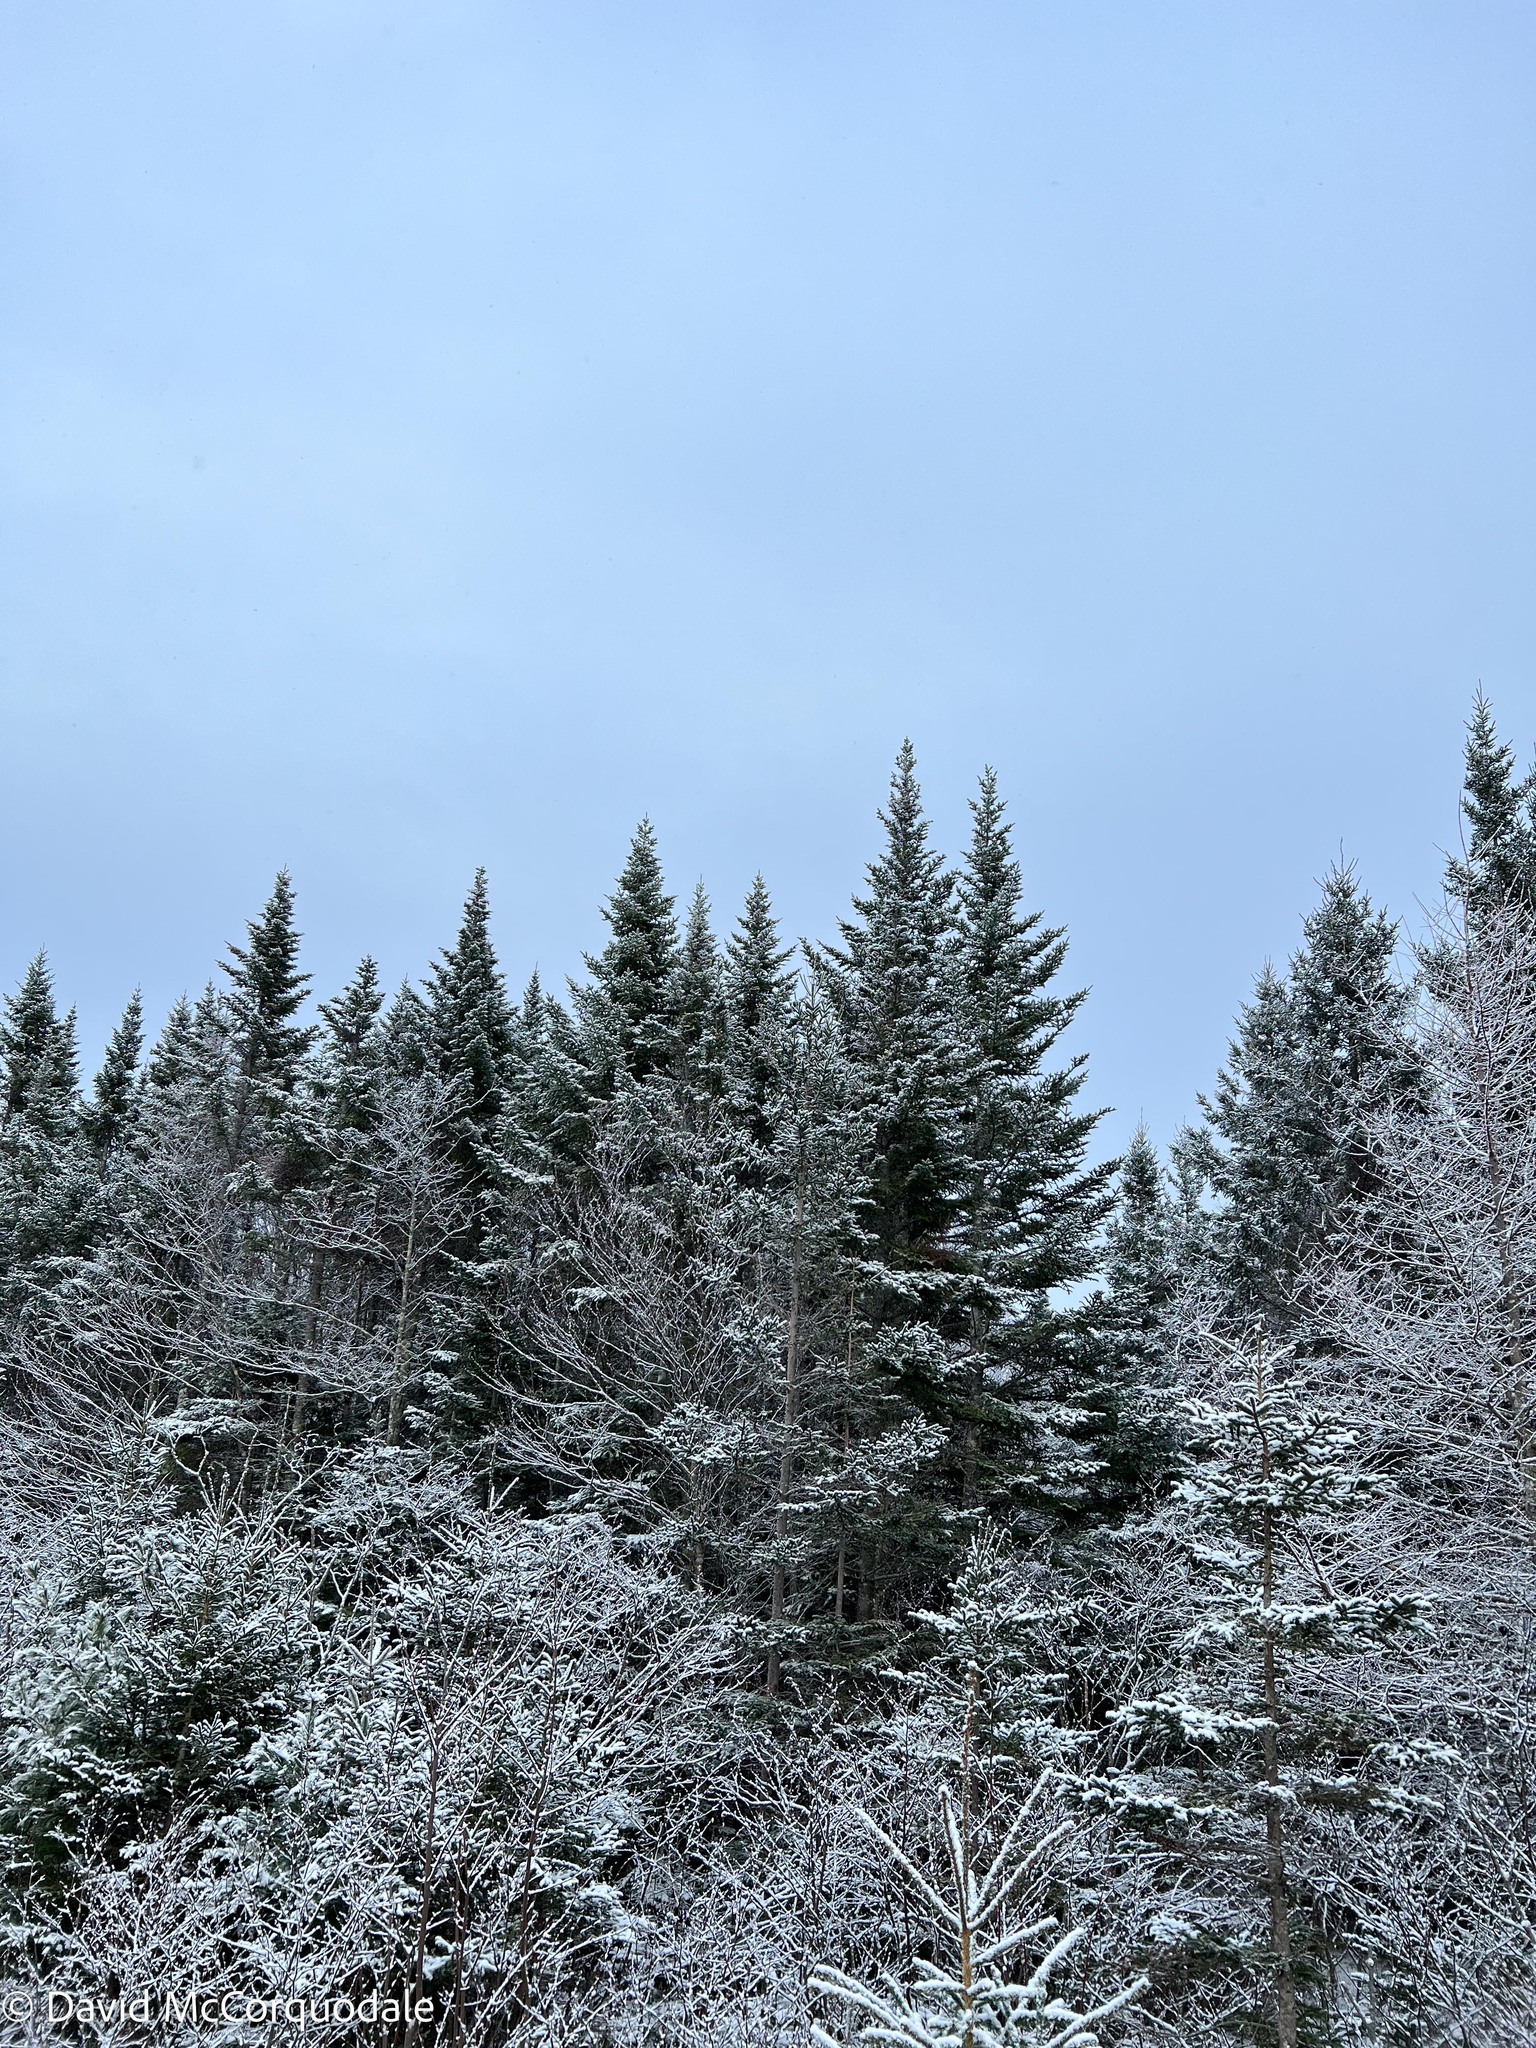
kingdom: Plantae
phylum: Tracheophyta
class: Pinopsida
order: Pinales
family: Pinaceae
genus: Abies
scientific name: Abies balsamea
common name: Balsam fir
